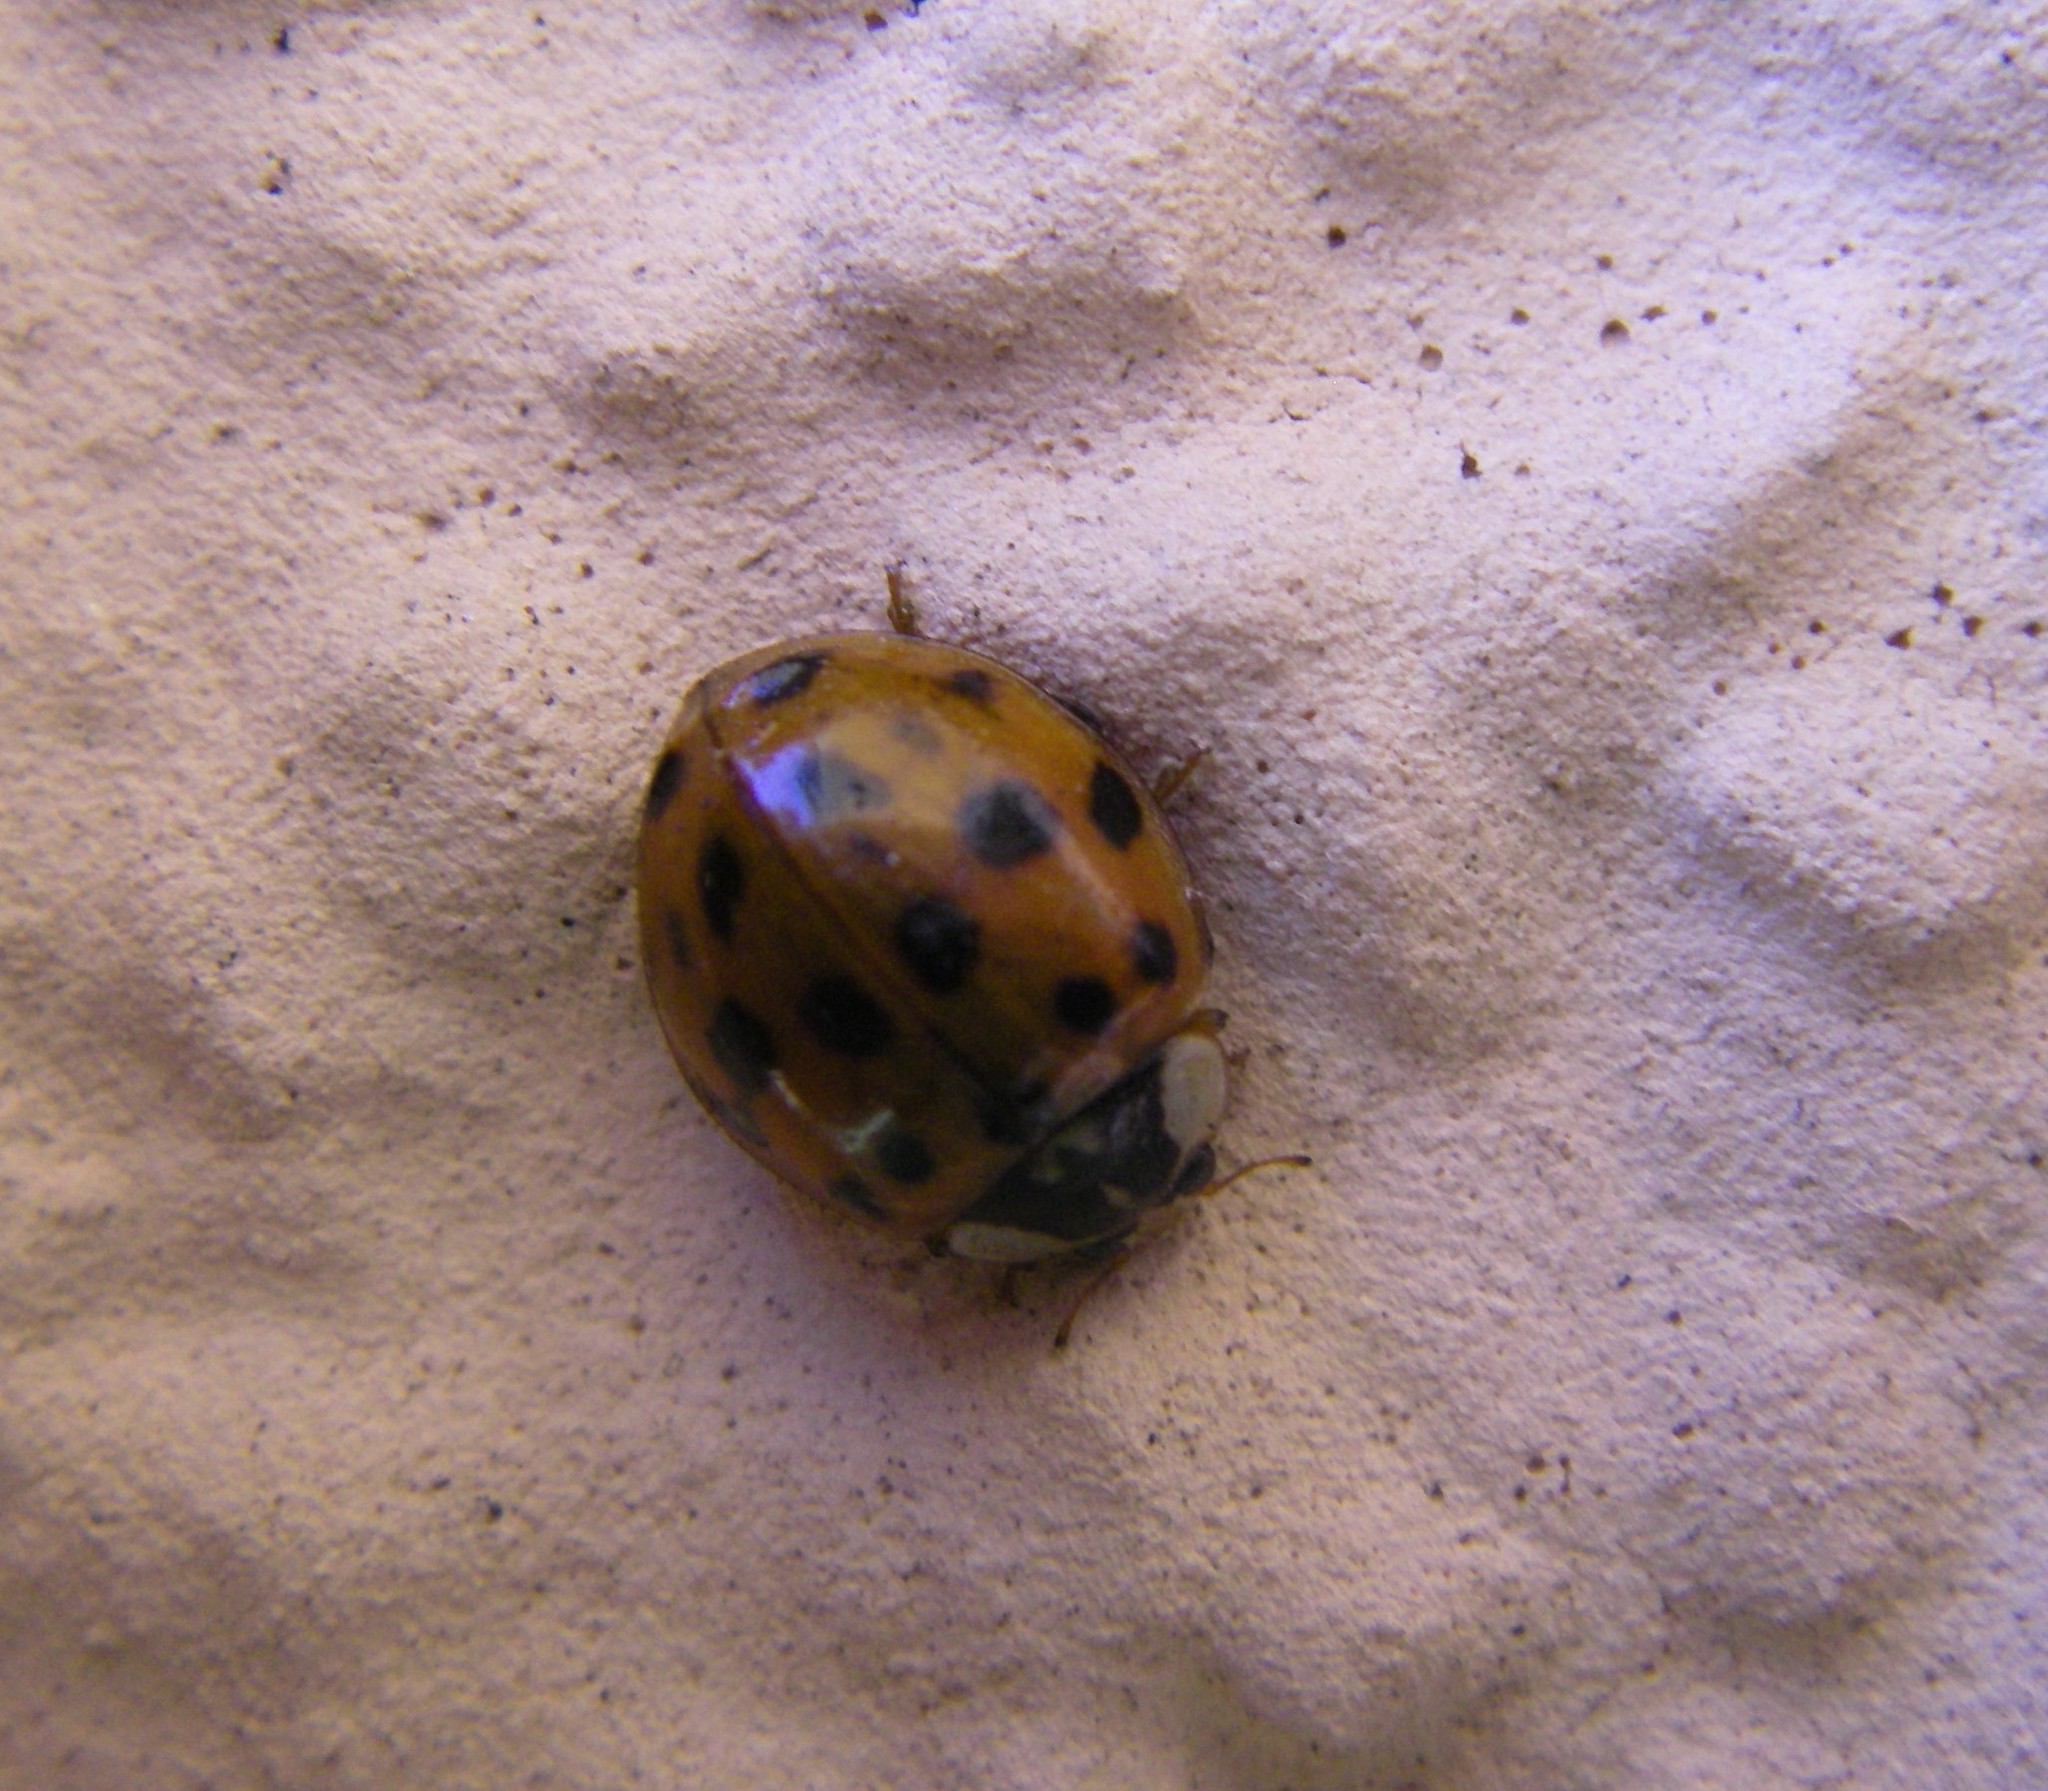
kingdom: Animalia
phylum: Arthropoda
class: Insecta
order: Coleoptera
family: Coccinellidae
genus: Harmonia
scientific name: Harmonia axyridis
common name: Harlequin ladybird
